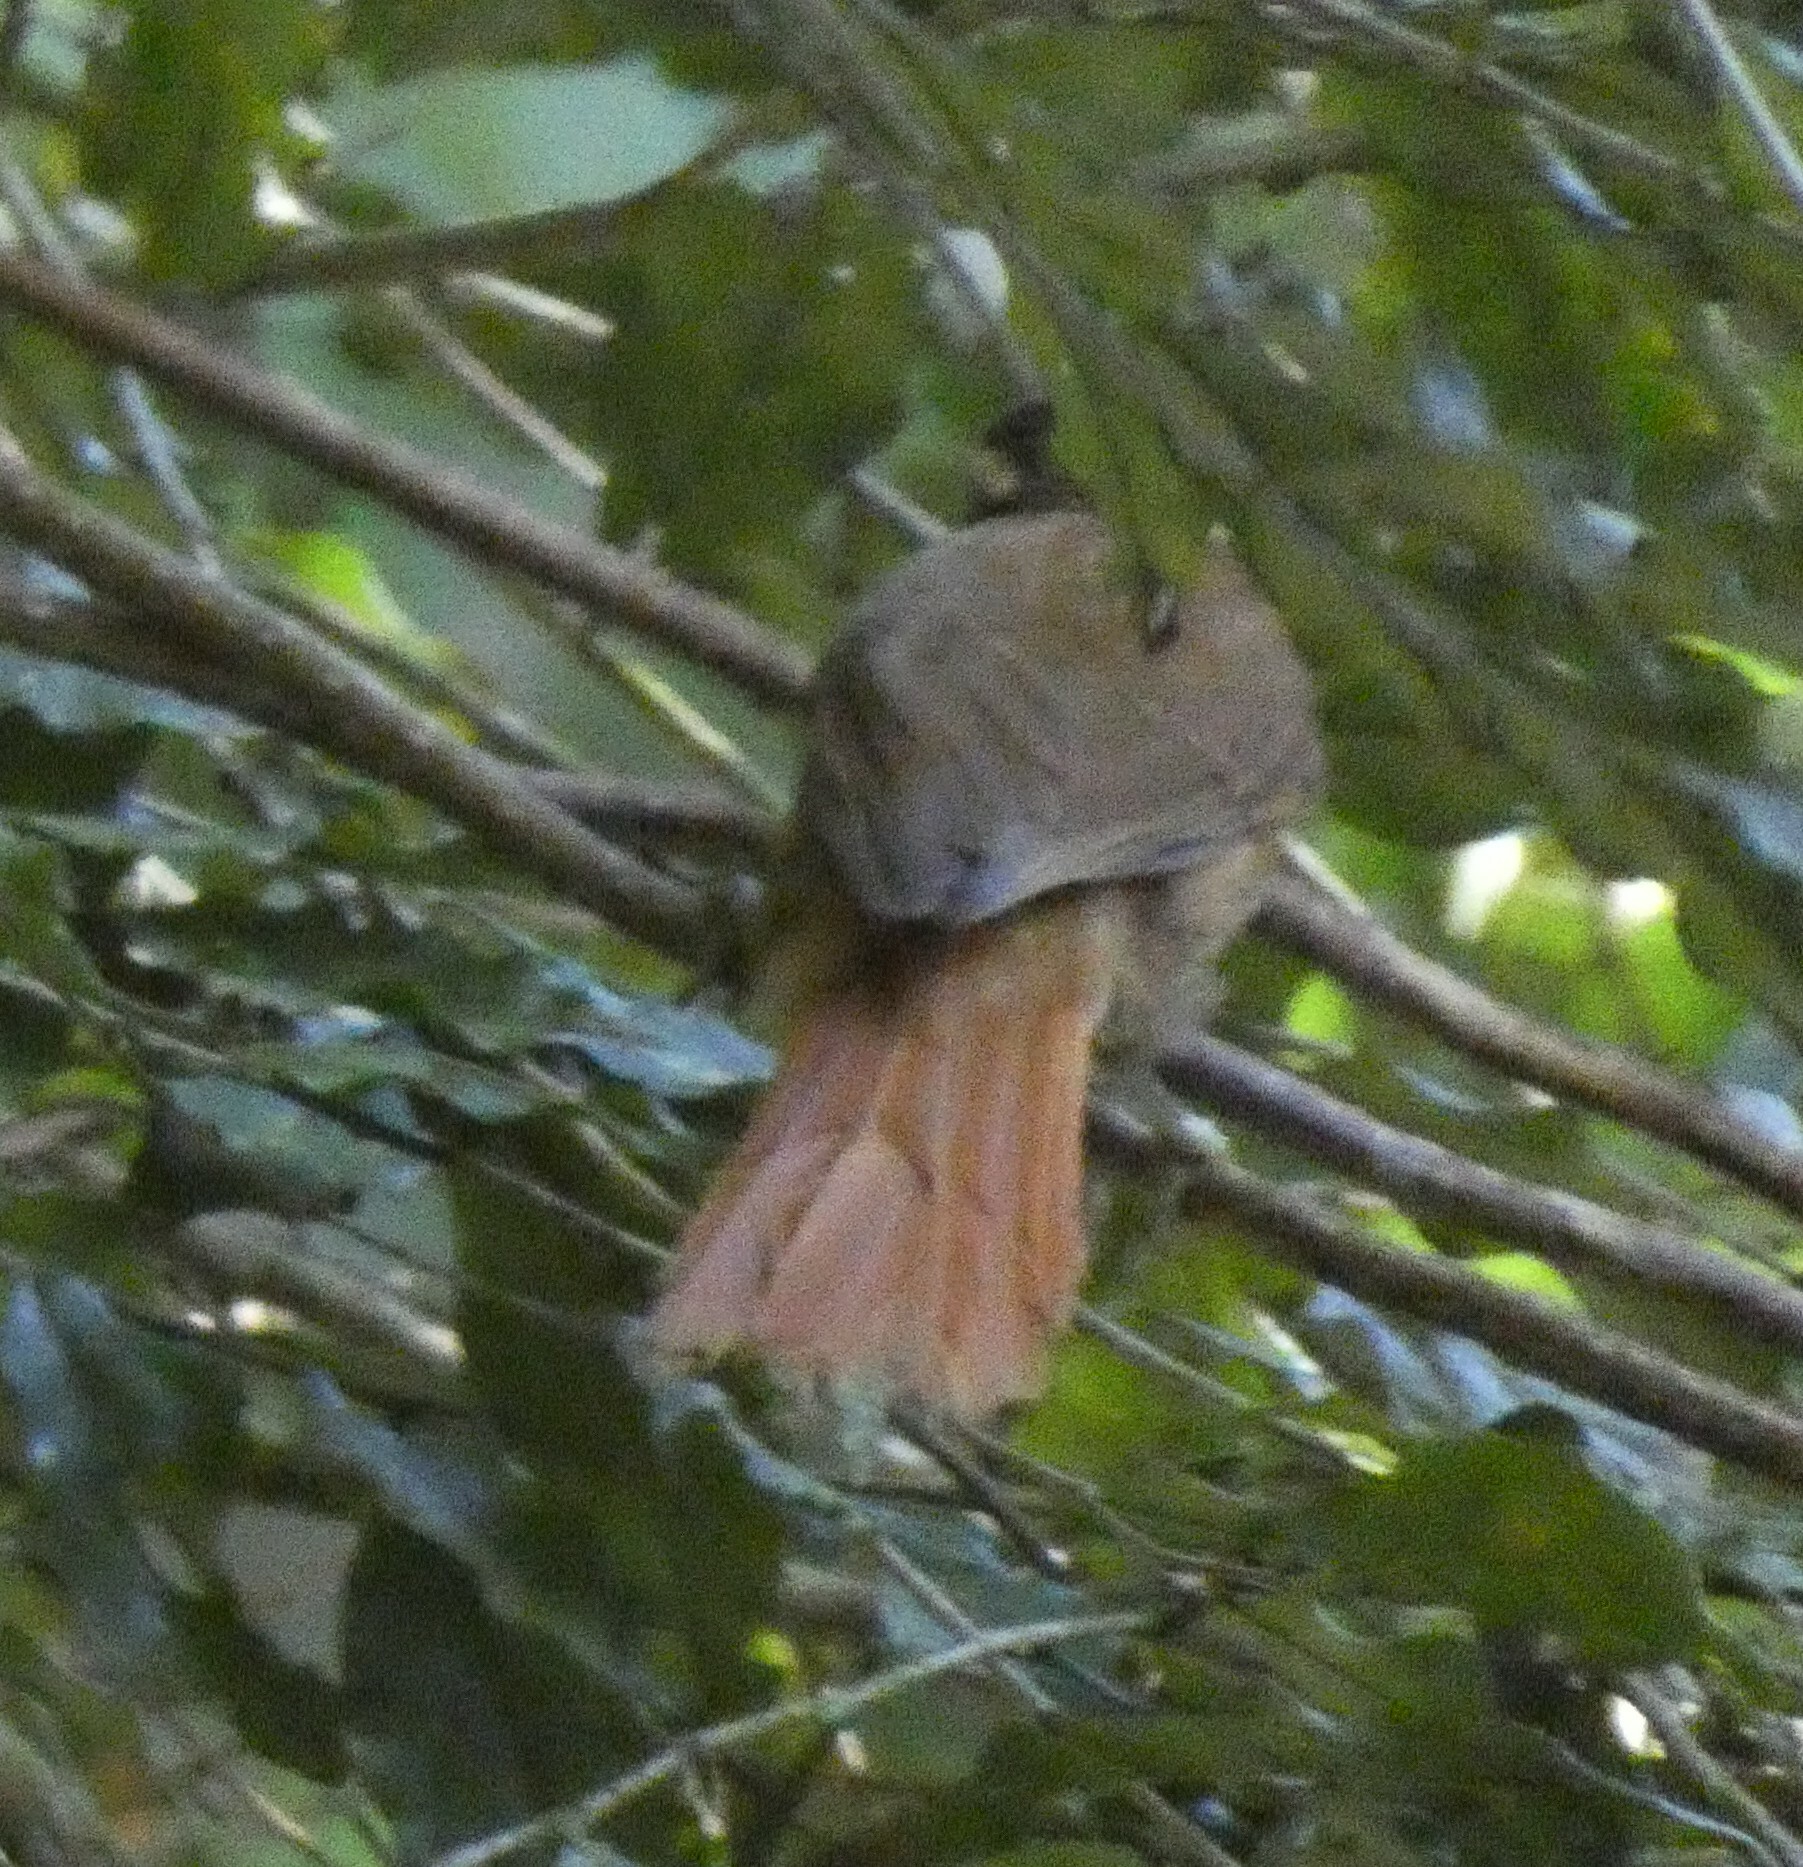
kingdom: Animalia
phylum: Chordata
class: Aves
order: Passeriformes
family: Furnariidae
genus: Philydor
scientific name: Philydor atricapillus
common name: Black-capped foliage-gleaner
